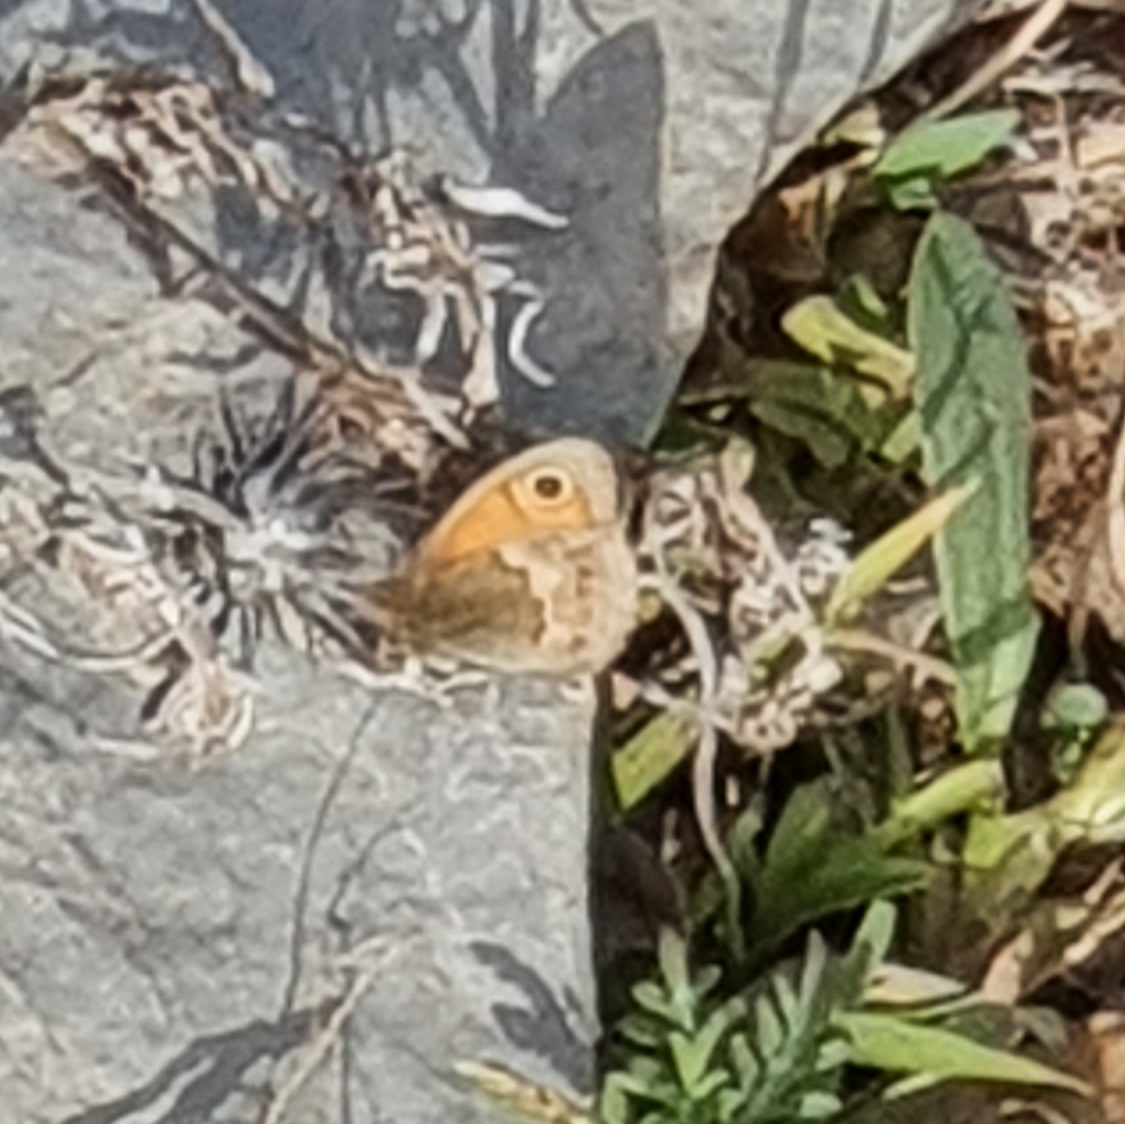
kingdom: Animalia
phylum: Arthropoda
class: Insecta
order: Lepidoptera
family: Nymphalidae
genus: Coenonympha
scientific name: Coenonympha pamphilus
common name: Small heath
